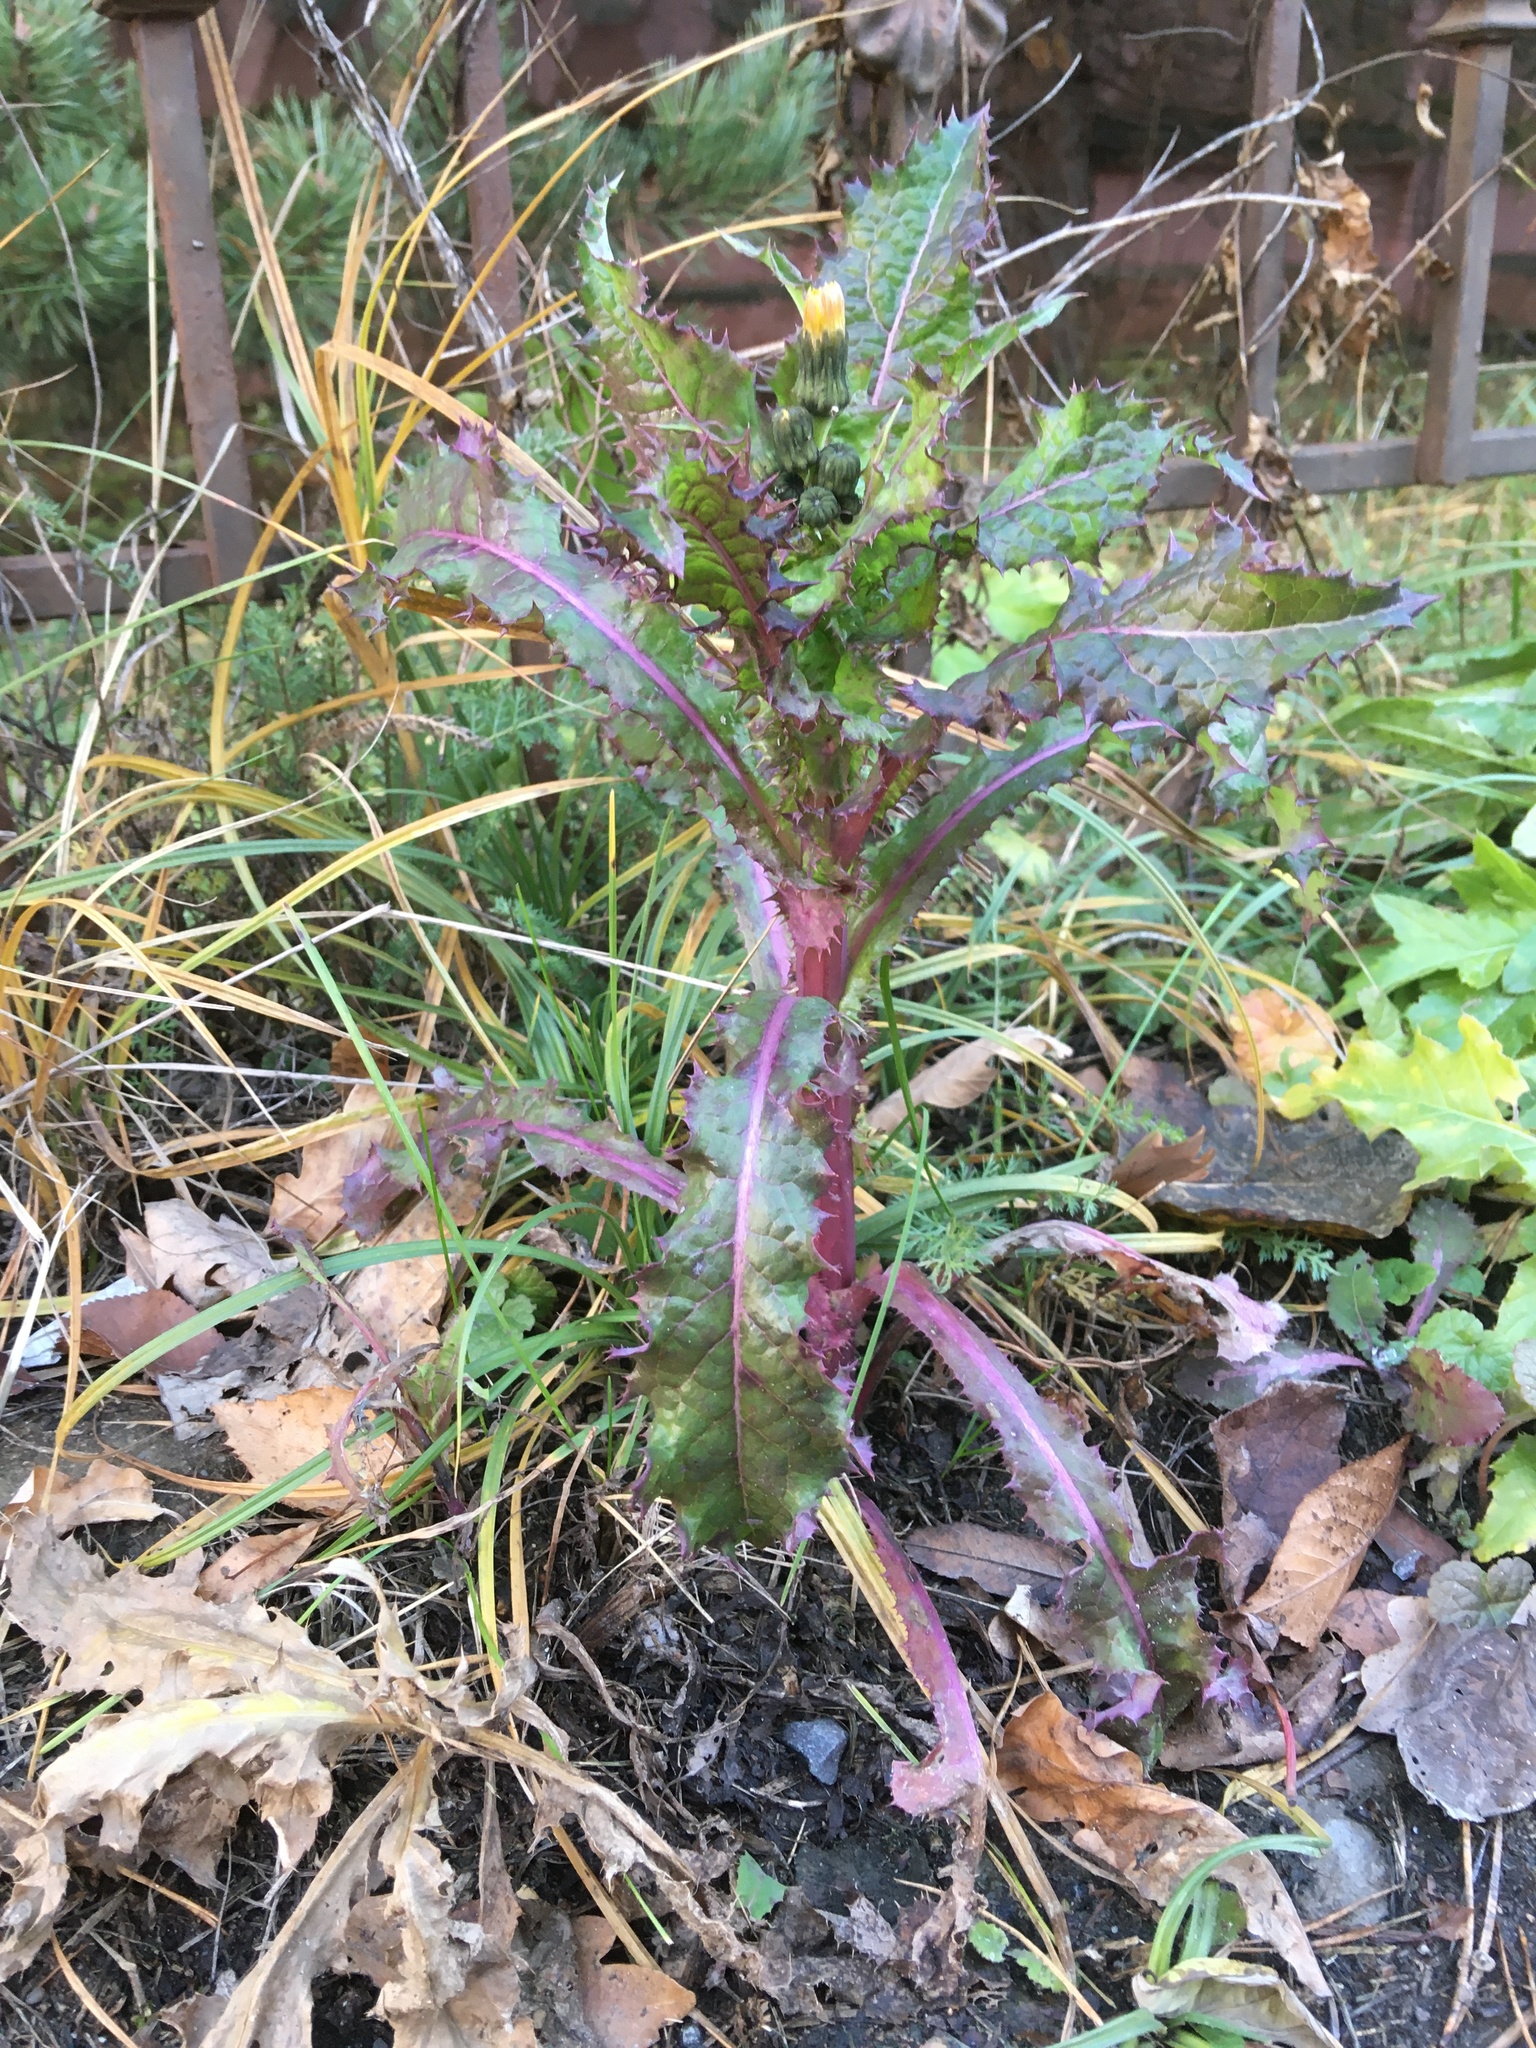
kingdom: Plantae
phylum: Tracheophyta
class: Magnoliopsida
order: Asterales
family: Asteraceae
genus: Sonchus
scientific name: Sonchus asper
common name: Prickly sow-thistle
